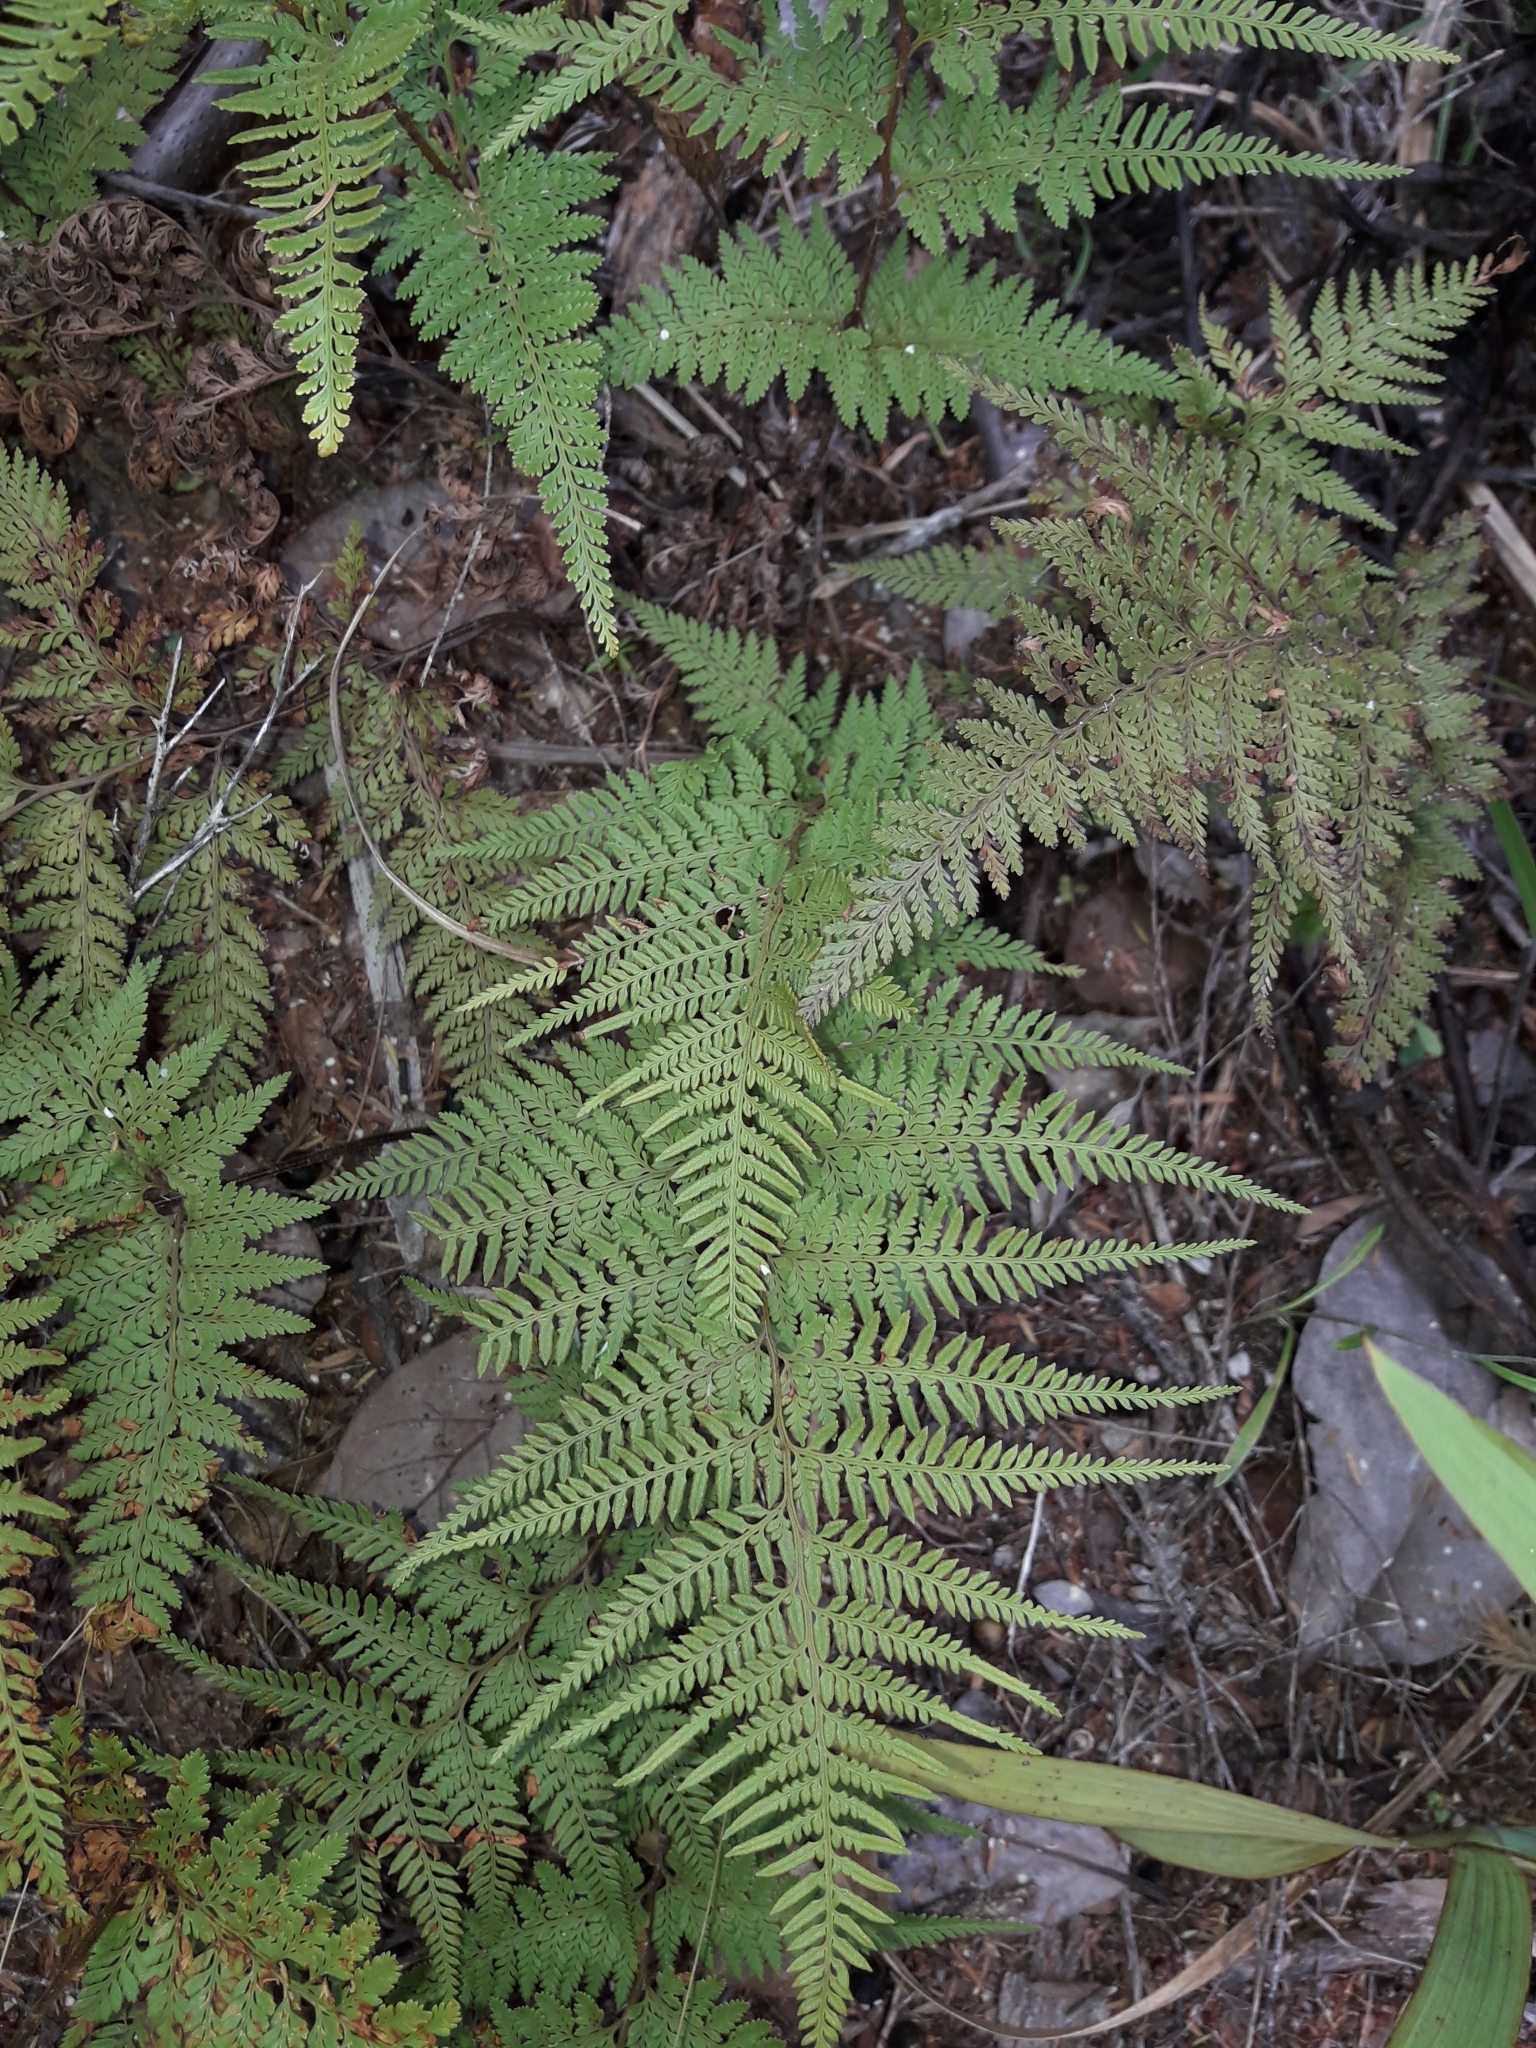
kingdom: Plantae
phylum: Tracheophyta
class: Polypodiopsida
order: Polypodiales
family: Dennstaedtiaceae
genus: Paesia
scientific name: Paesia scaberula
